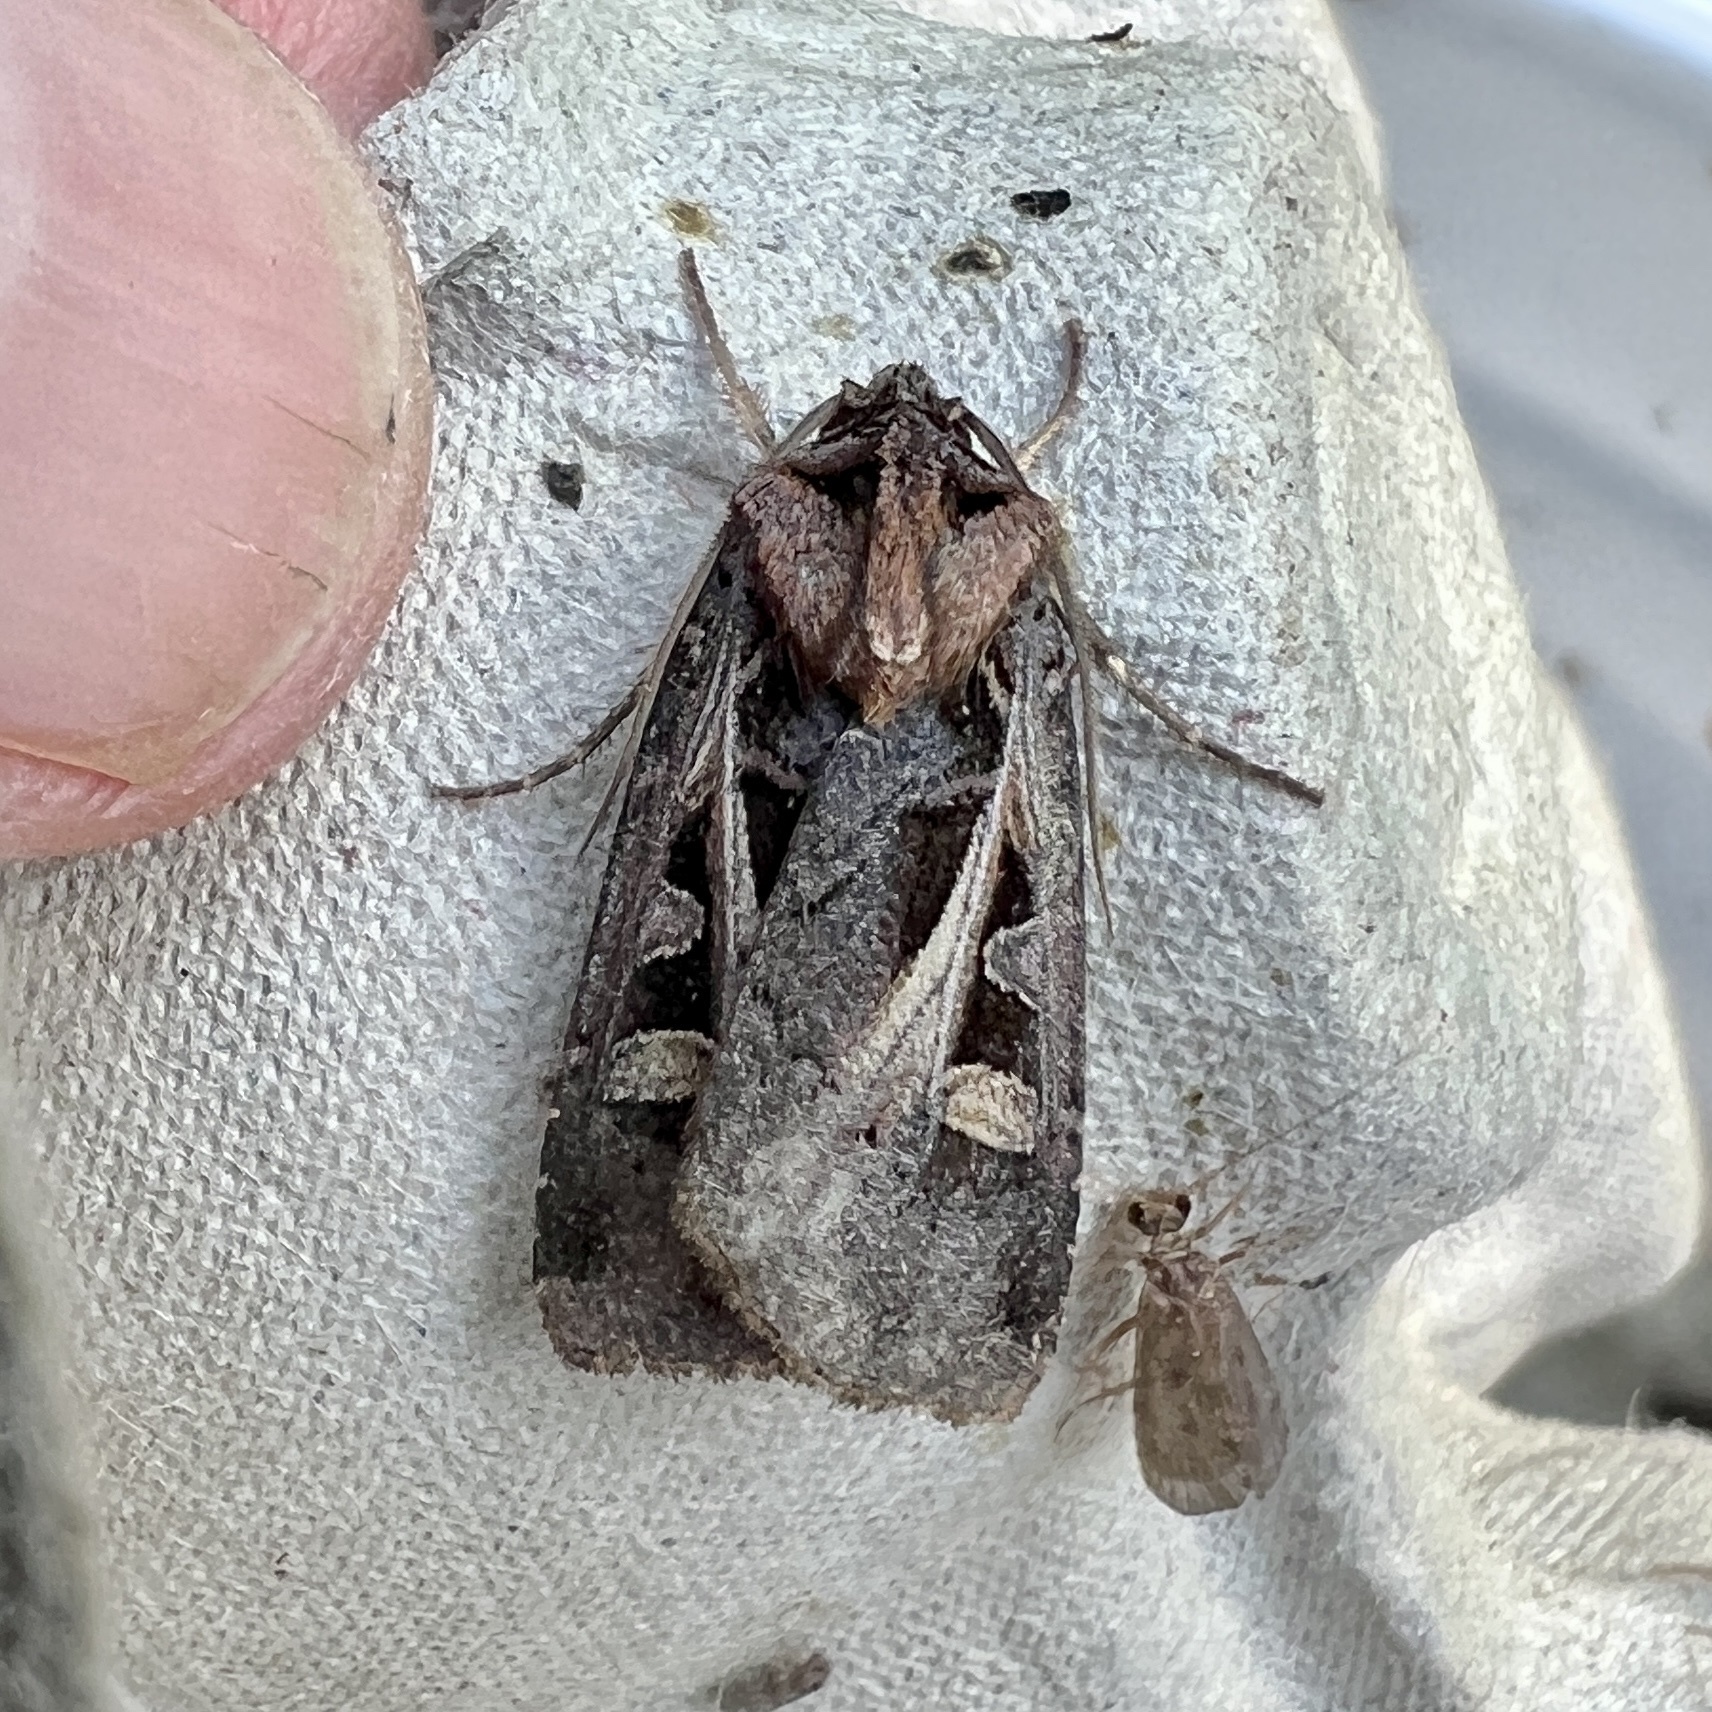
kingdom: Animalia
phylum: Arthropoda
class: Insecta
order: Lepidoptera
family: Noctuidae
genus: Feltia
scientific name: Feltia herilis
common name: Master's dart
